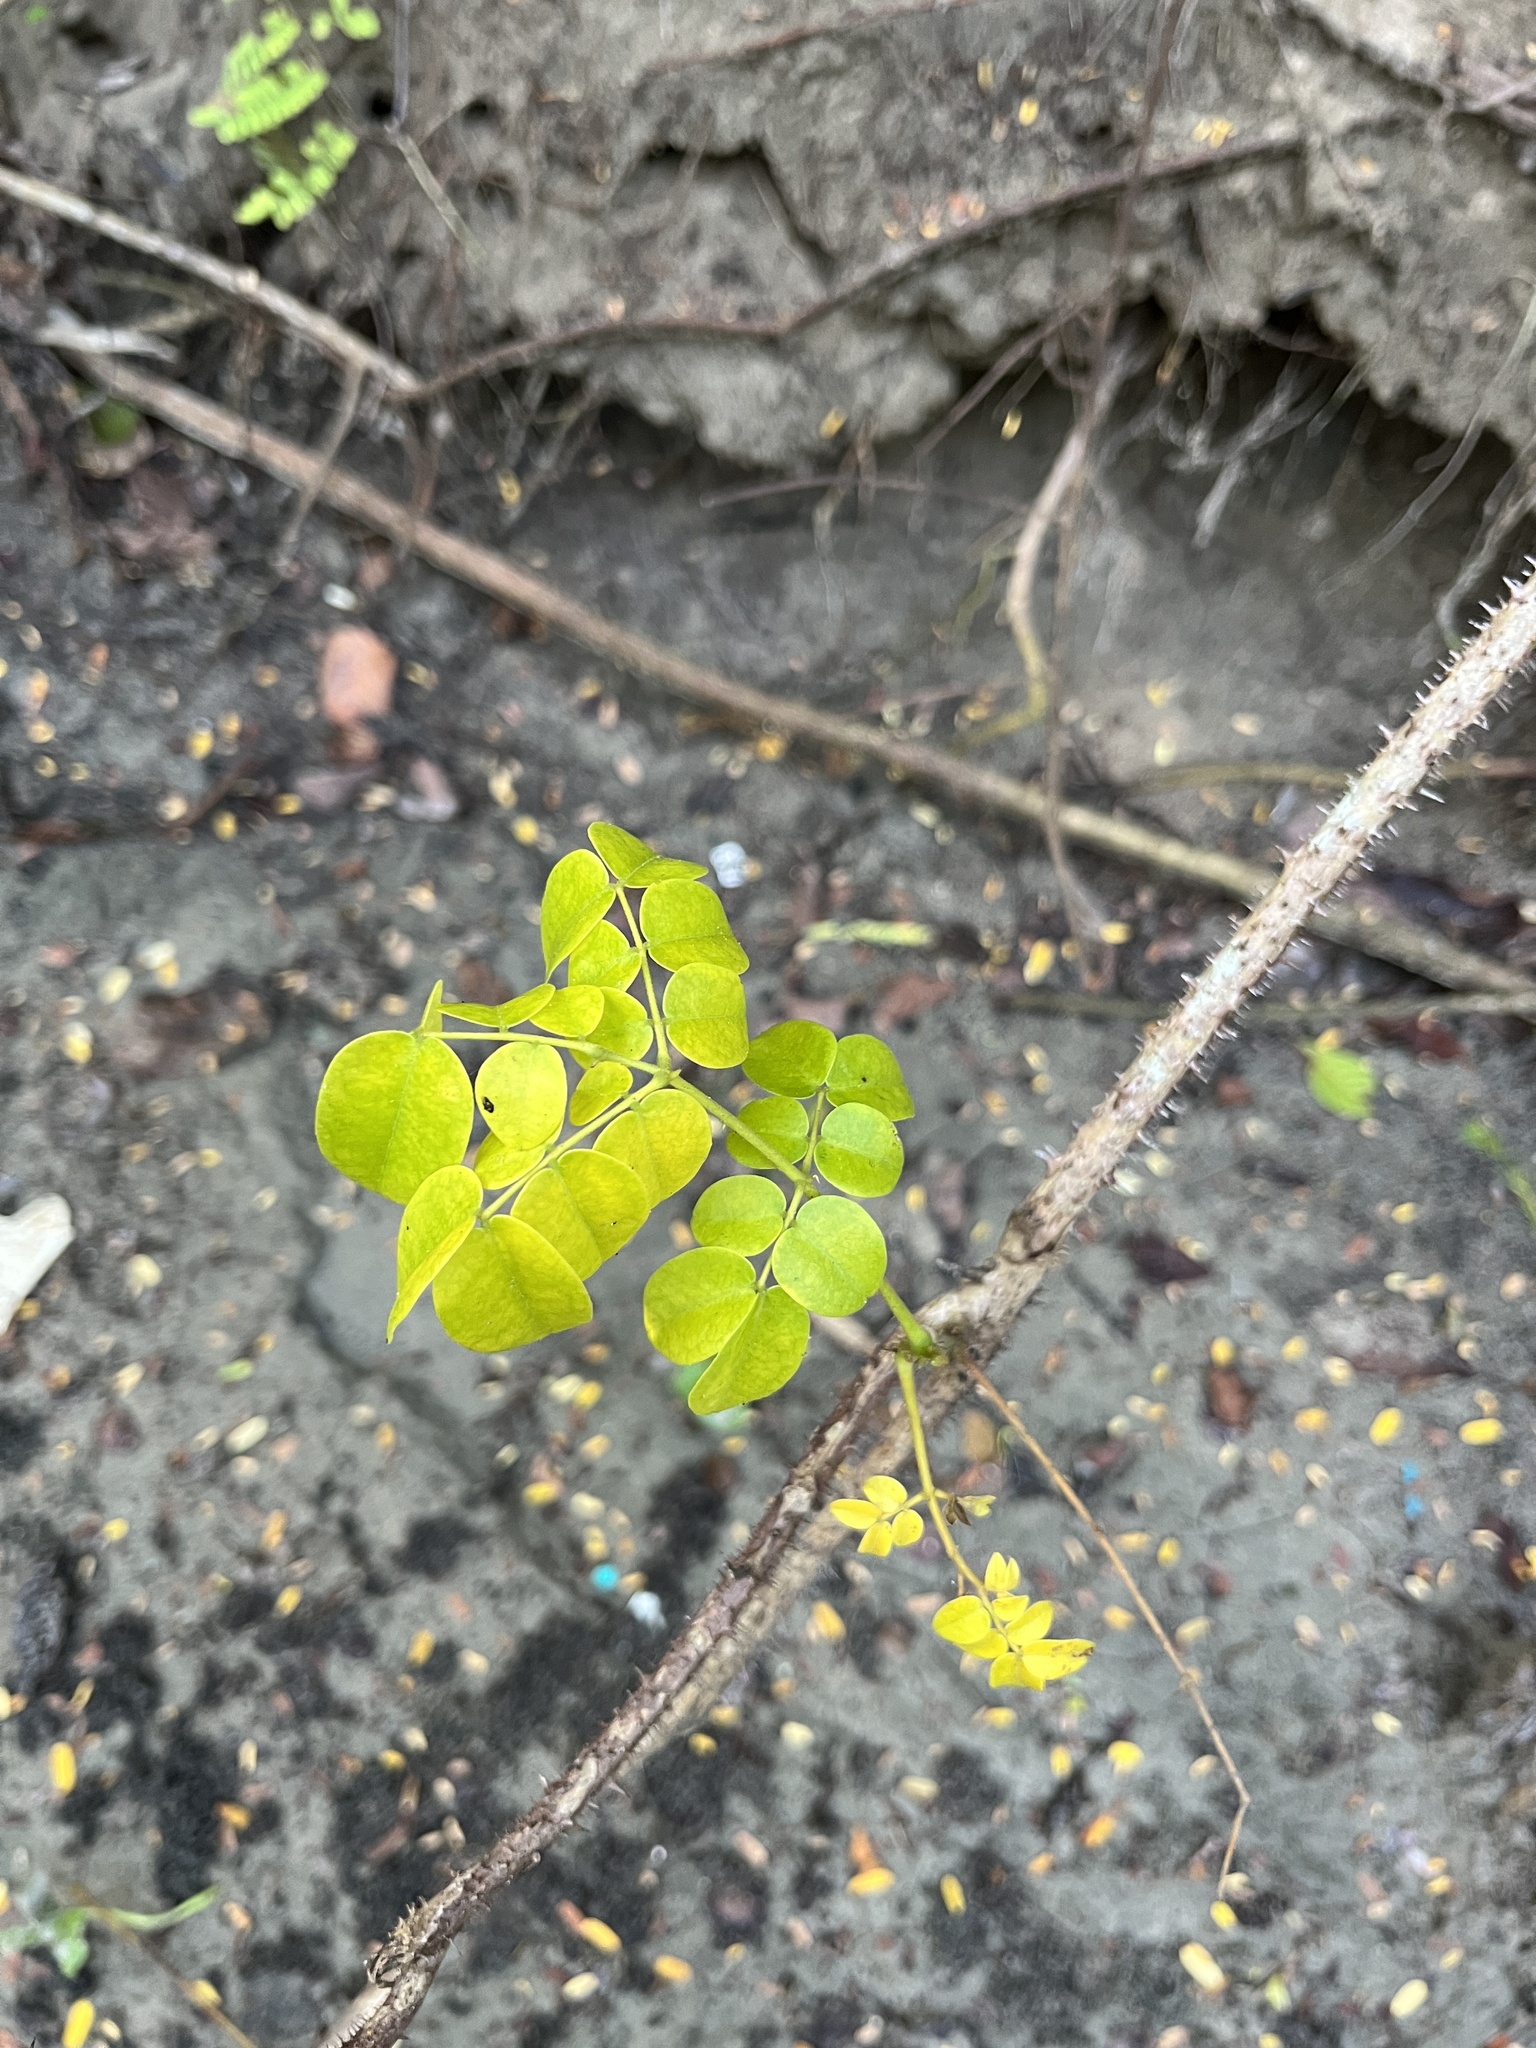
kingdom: Plantae
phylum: Tracheophyta
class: Magnoliopsida
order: Fabales
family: Fabaceae
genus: Guilandina
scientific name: Guilandina bonduc
